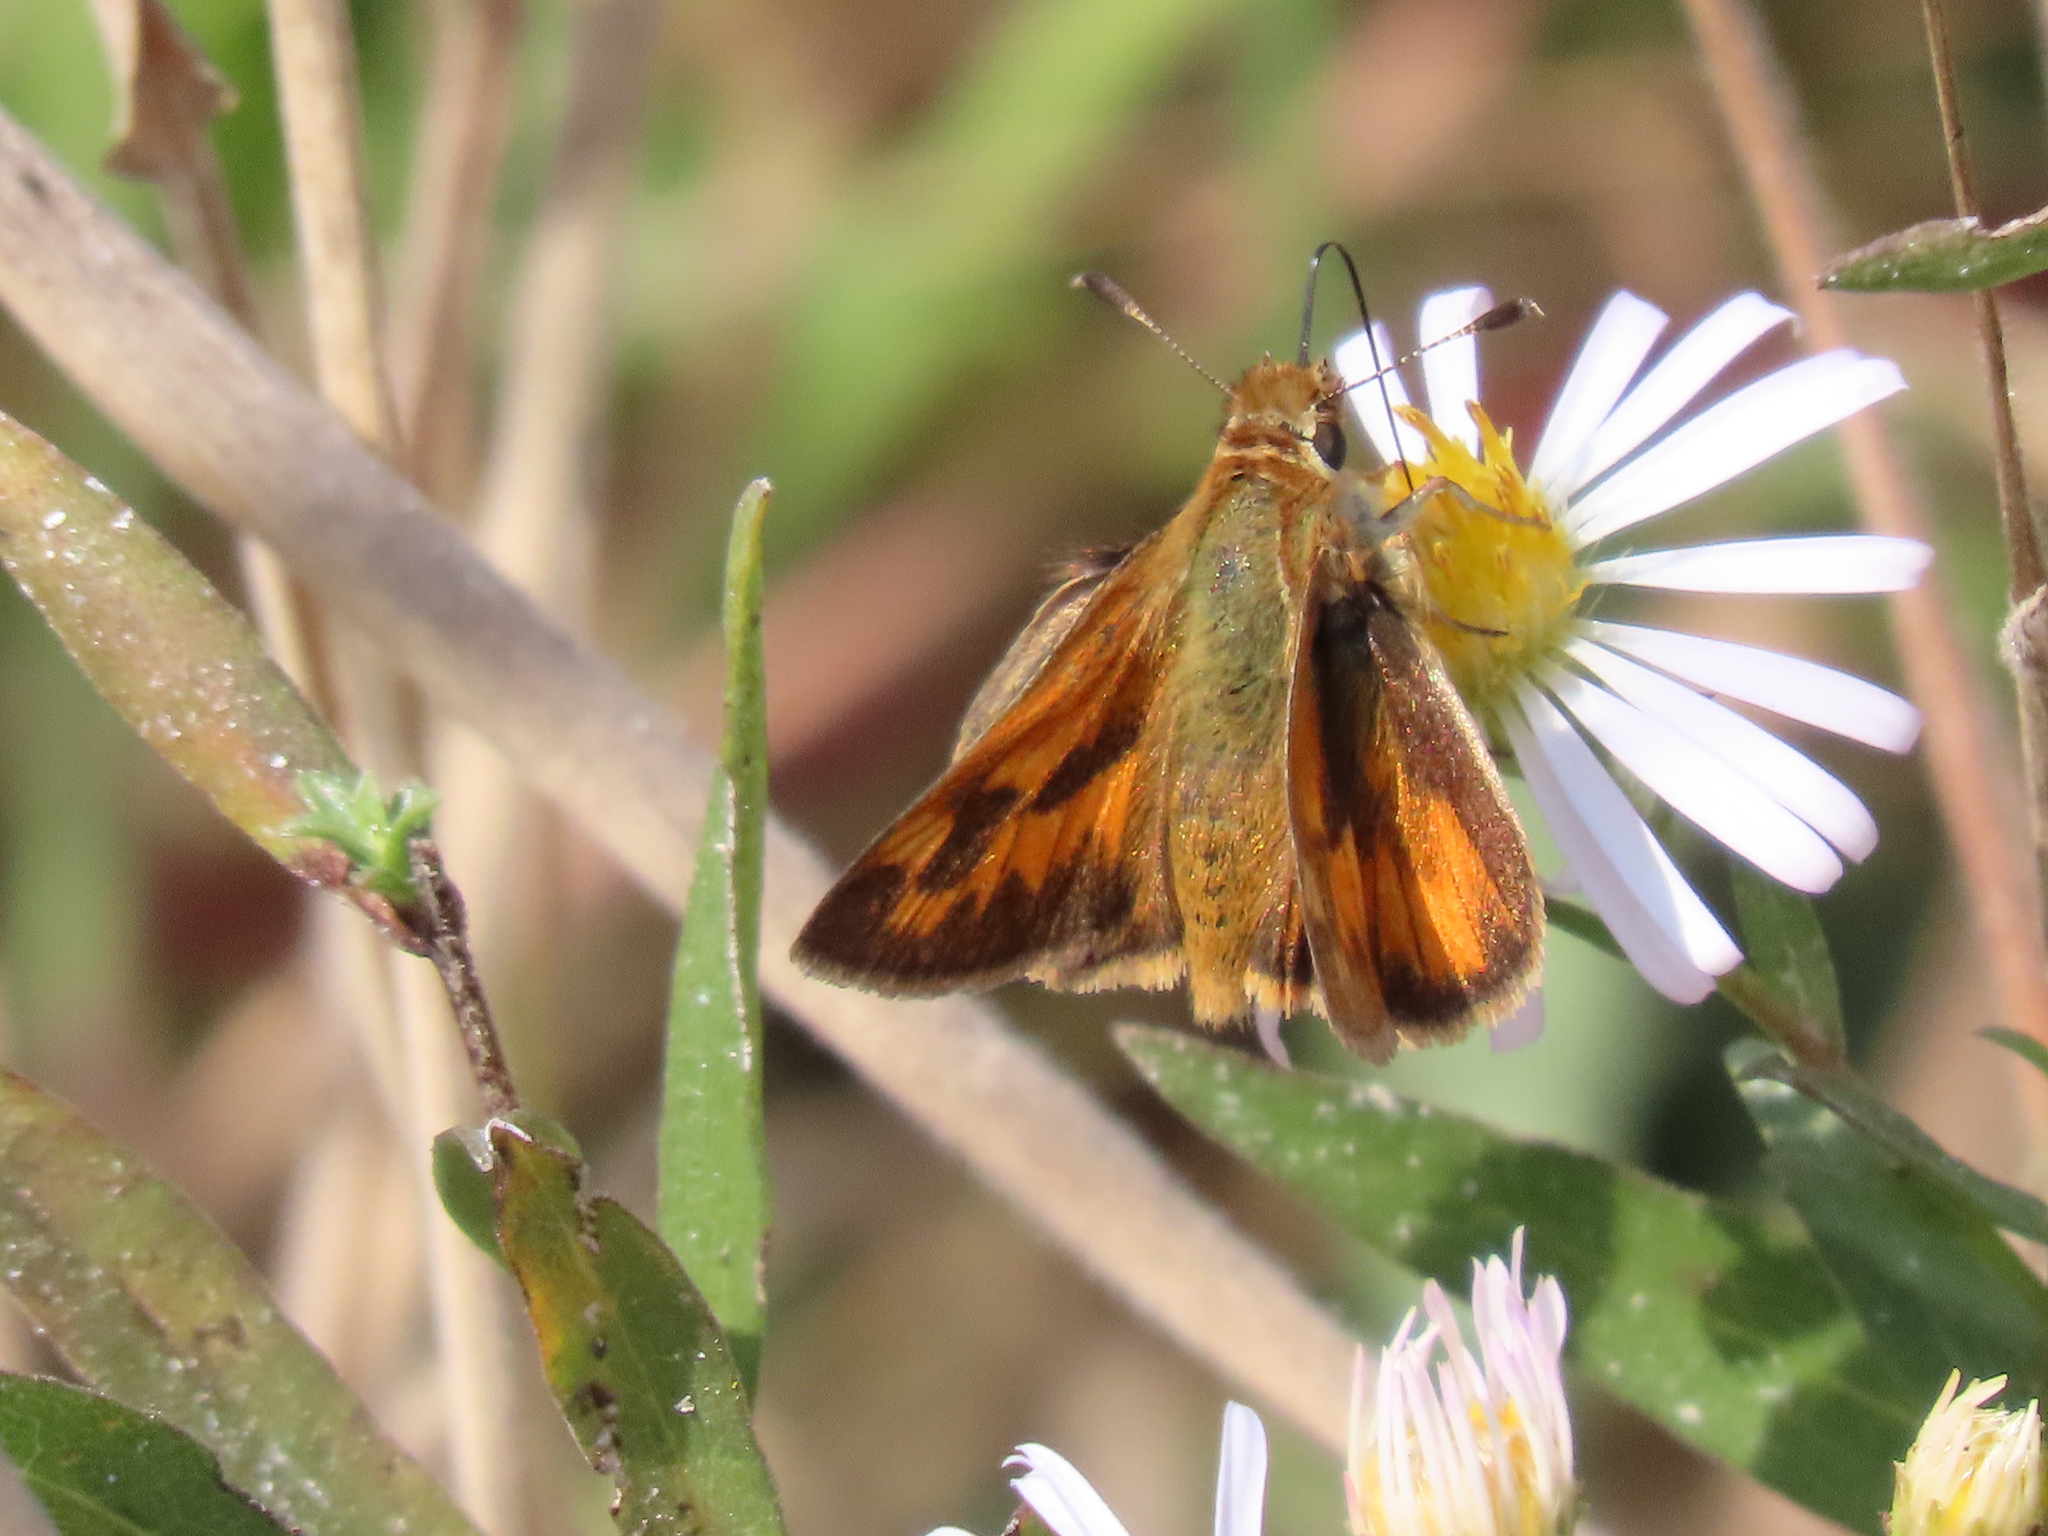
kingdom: Animalia
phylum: Arthropoda
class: Insecta
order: Lepidoptera
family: Hesperiidae
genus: Ochlodes
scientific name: Ochlodes sylvanoides
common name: Woodland skipper
